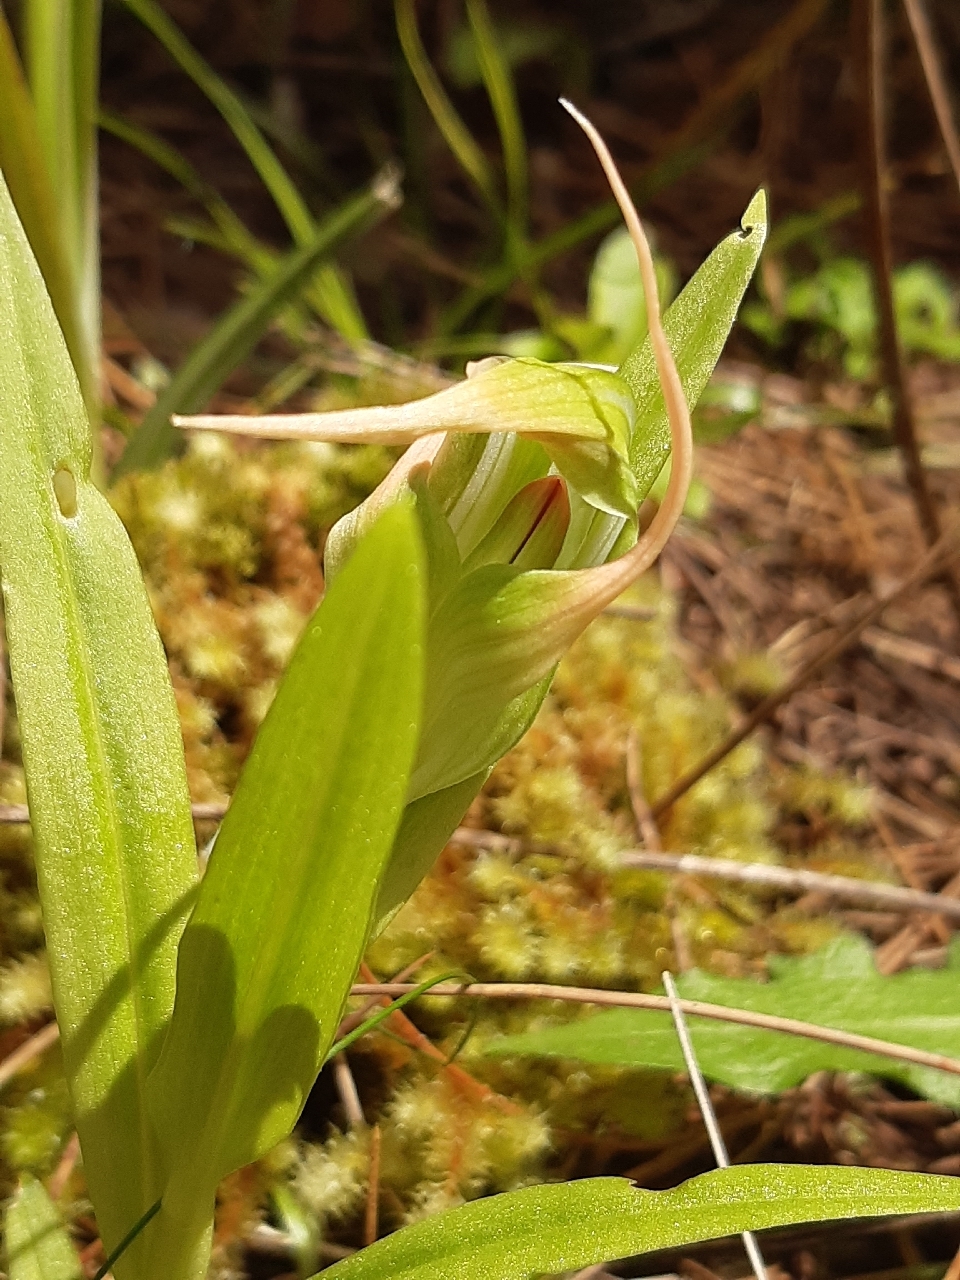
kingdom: Plantae
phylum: Tracheophyta
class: Liliopsida
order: Asparagales
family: Orchidaceae
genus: Pterostylis
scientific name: Pterostylis banksii
